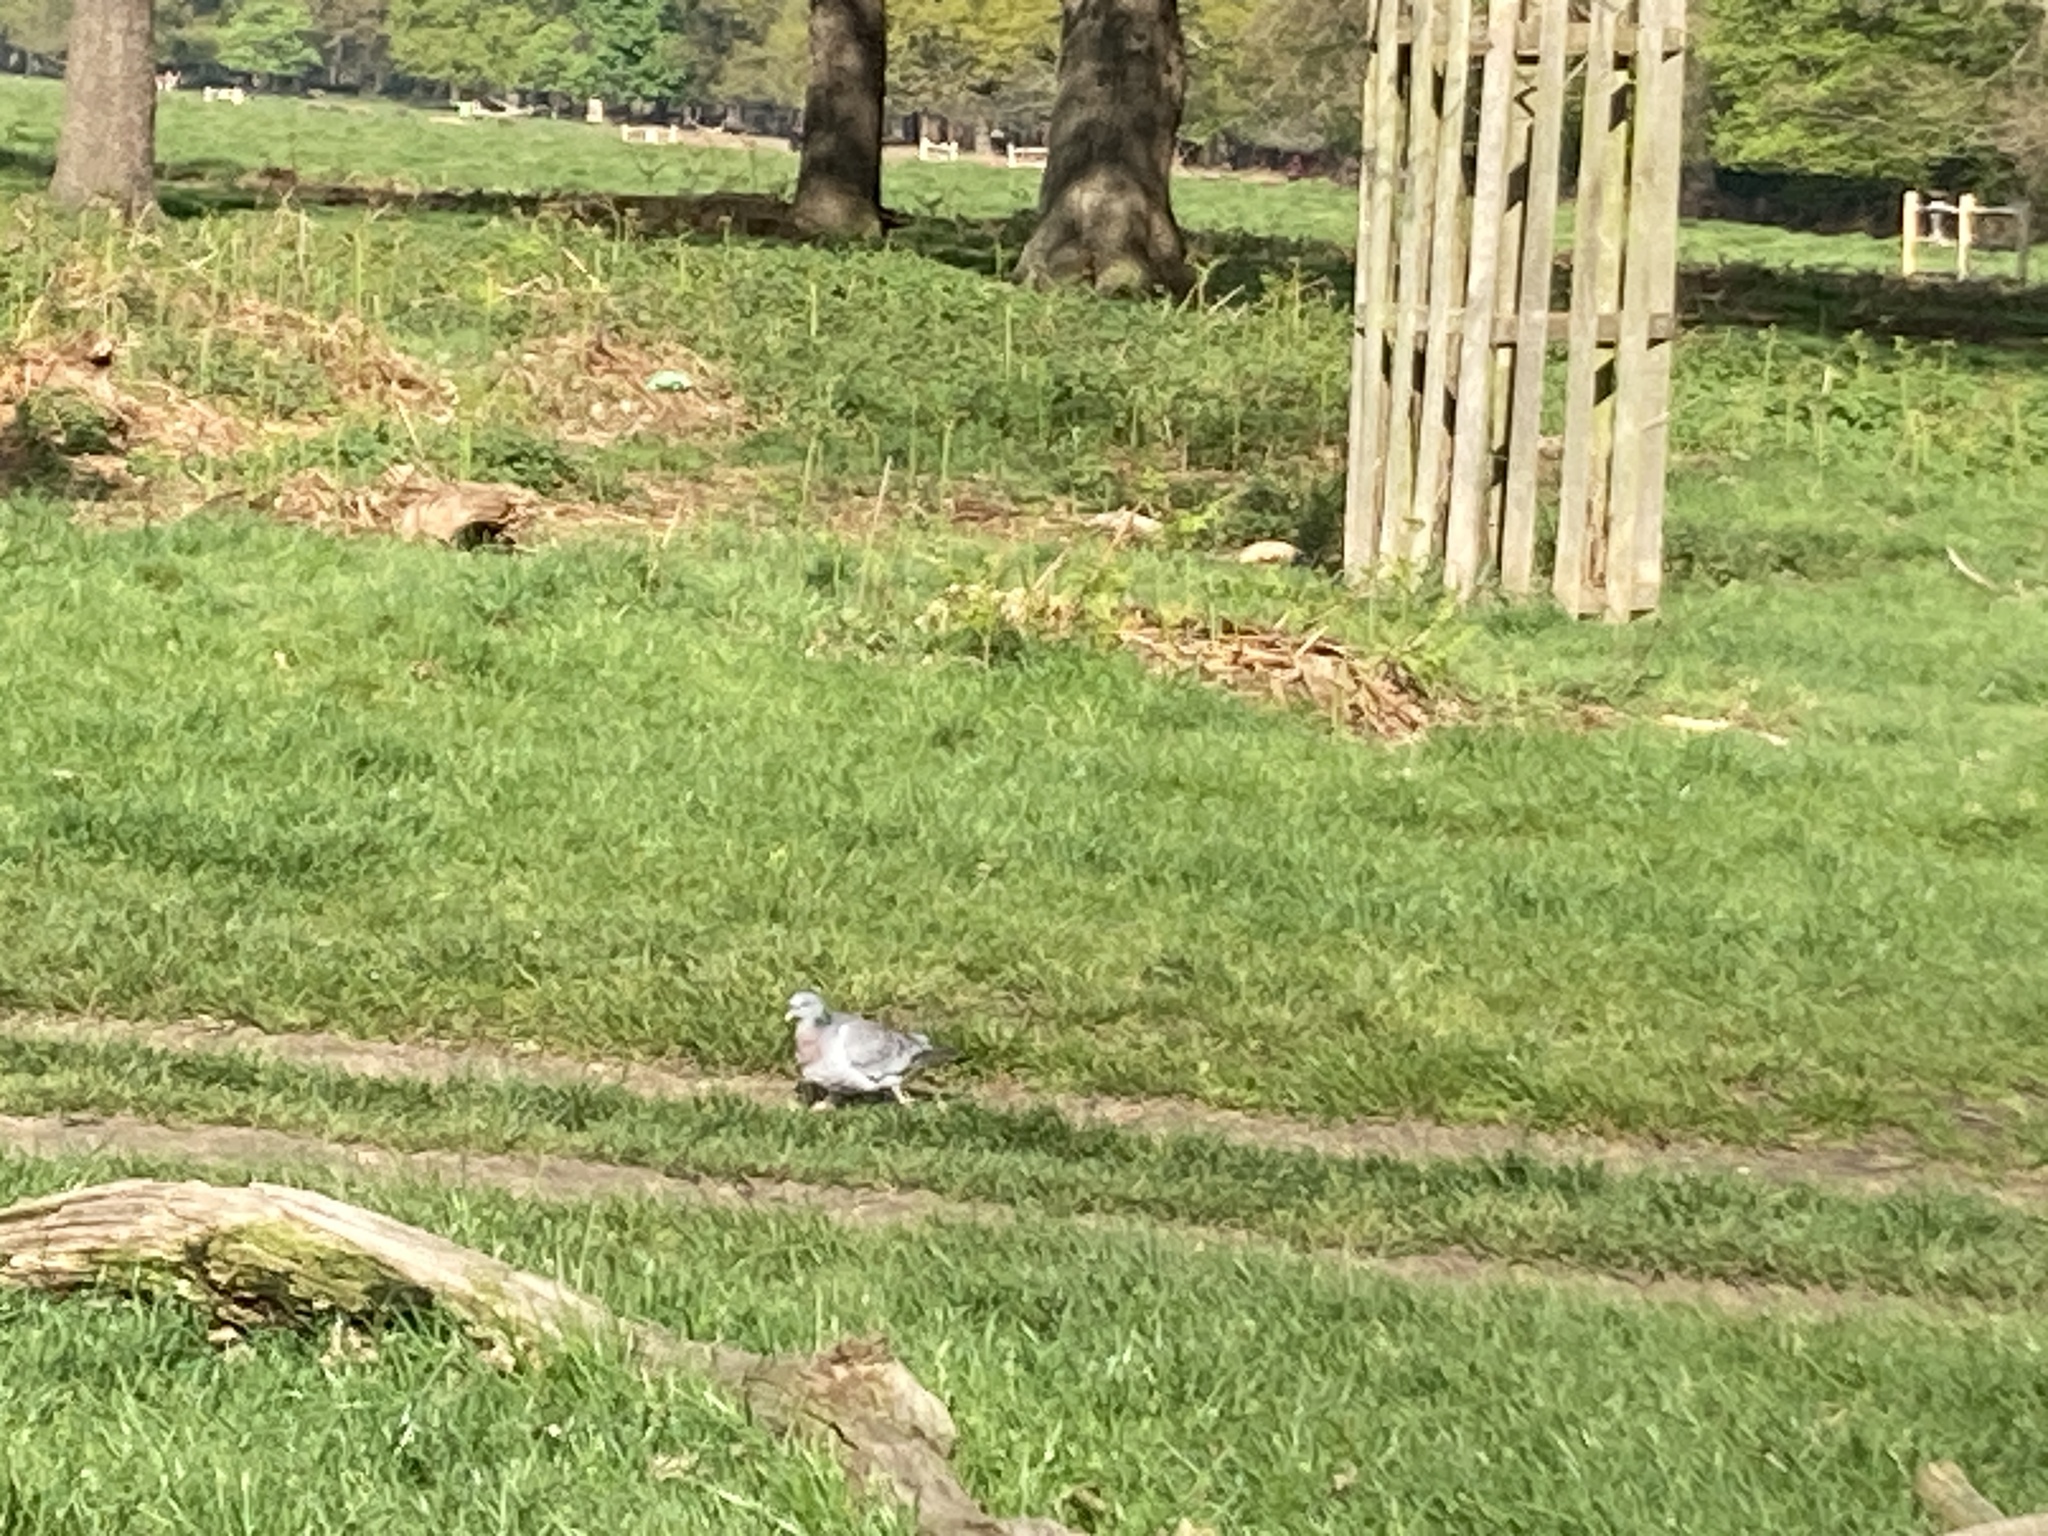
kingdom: Animalia
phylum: Chordata
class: Aves
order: Columbiformes
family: Columbidae
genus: Columba
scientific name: Columba oenas
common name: Stock dove
